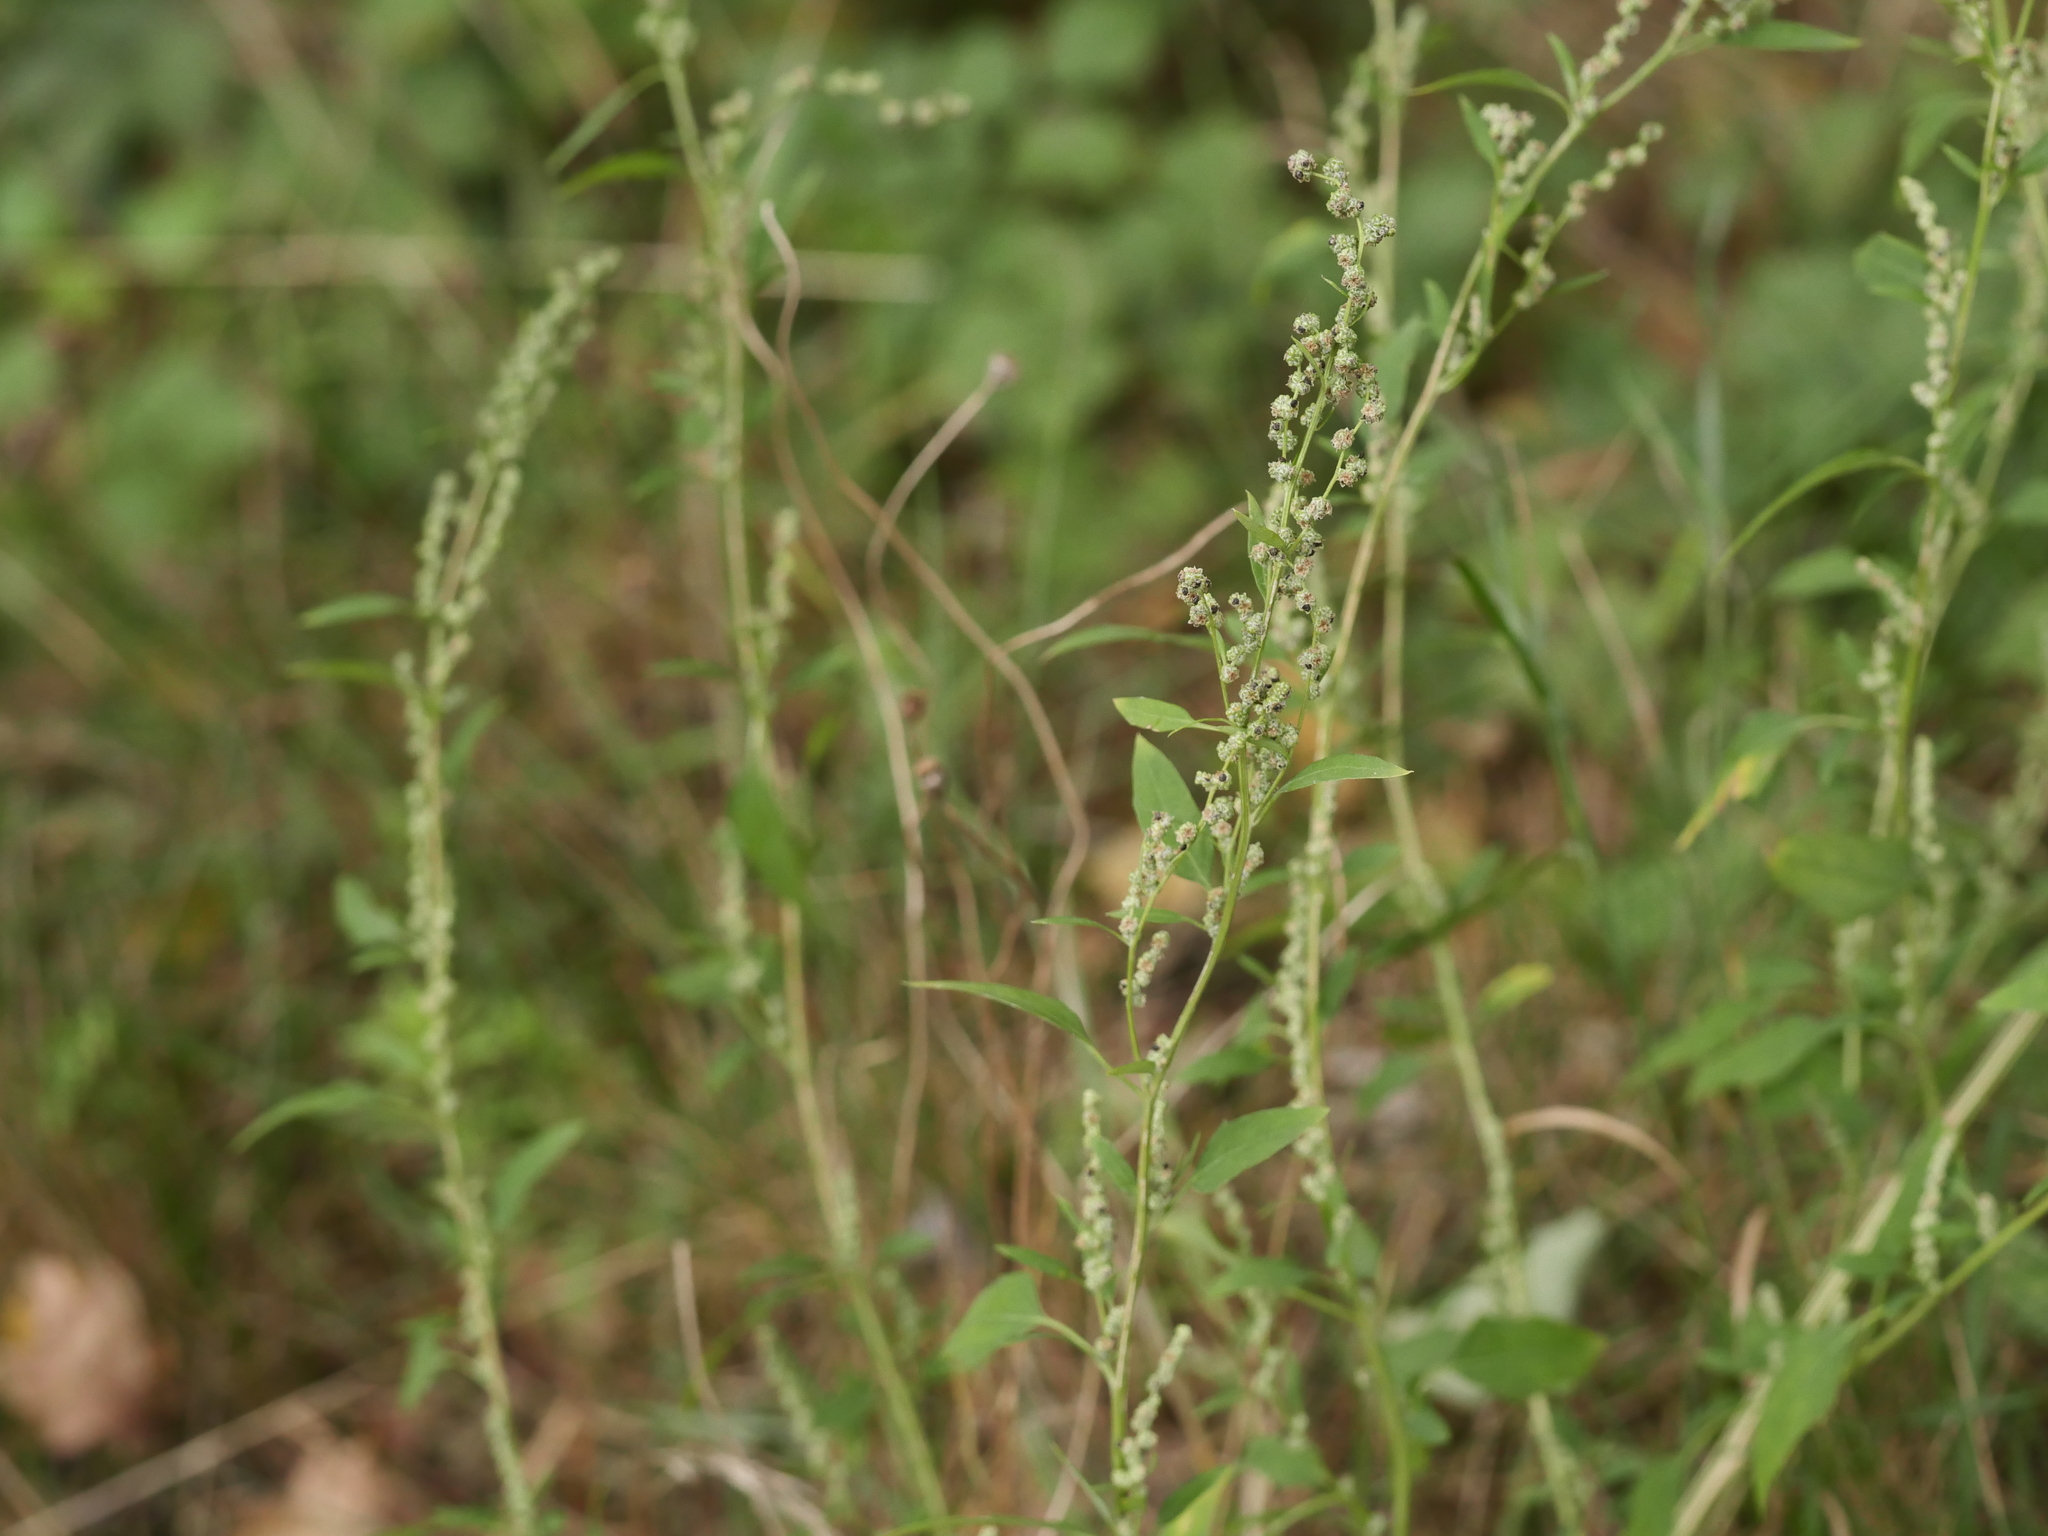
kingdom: Plantae
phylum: Tracheophyta
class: Magnoliopsida
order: Caryophyllales
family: Amaranthaceae
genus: Chenopodium
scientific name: Chenopodium album
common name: Fat-hen
